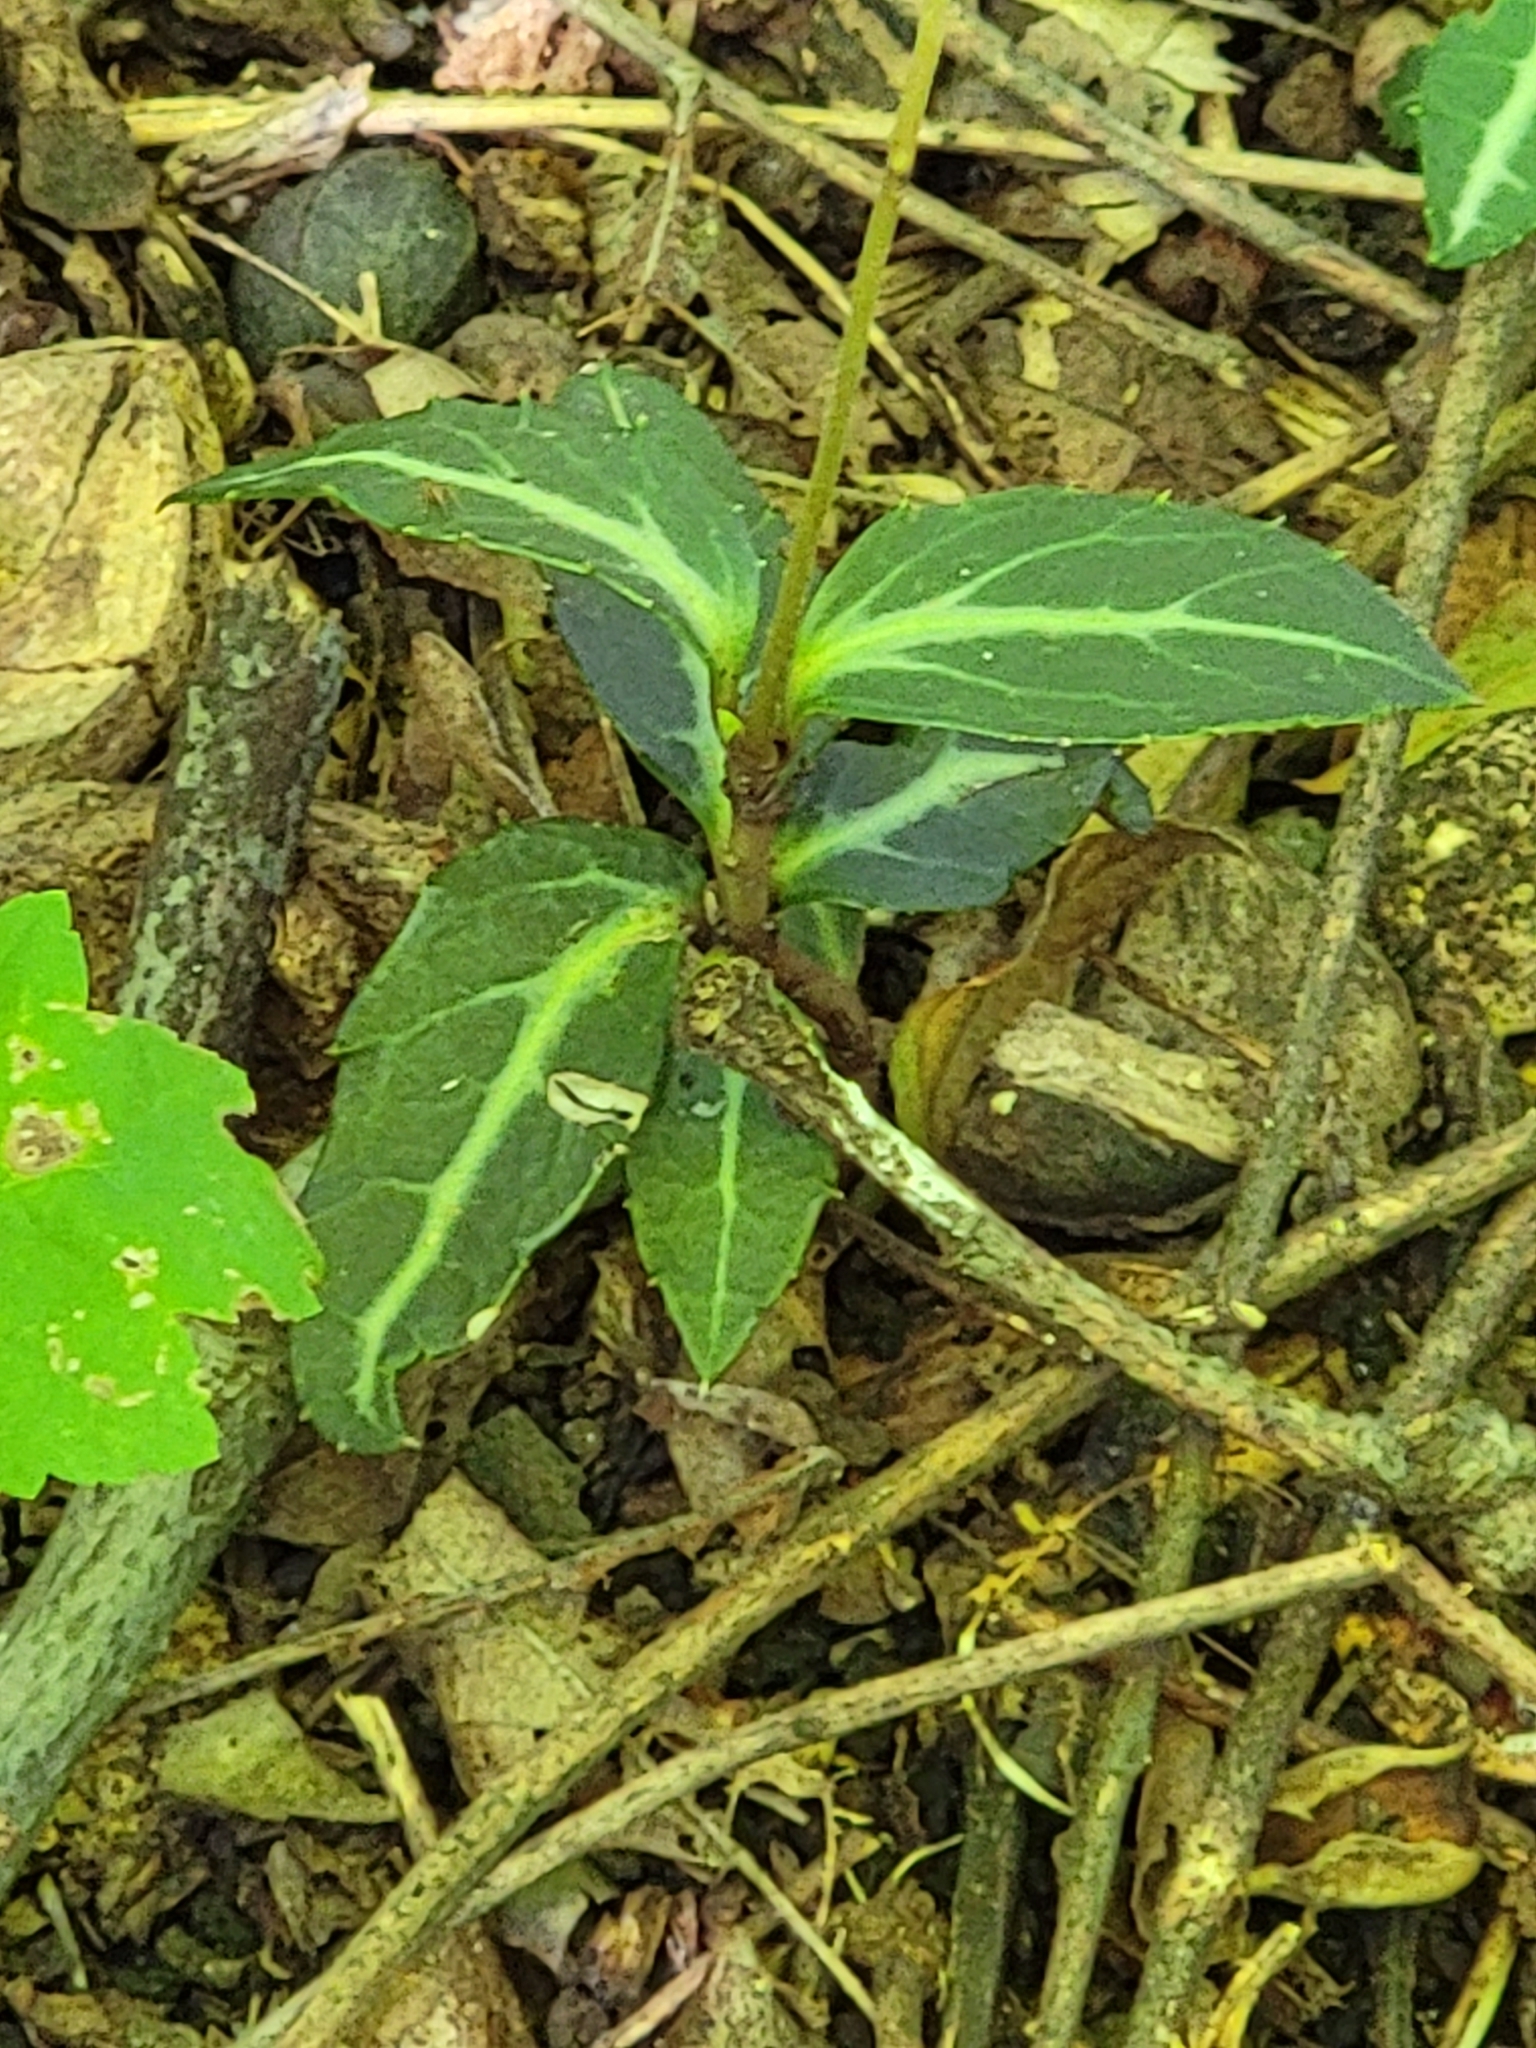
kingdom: Plantae
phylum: Tracheophyta
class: Magnoliopsida
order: Ericales
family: Ericaceae
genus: Chimaphila
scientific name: Chimaphila maculata
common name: Spotted pipsissewa
